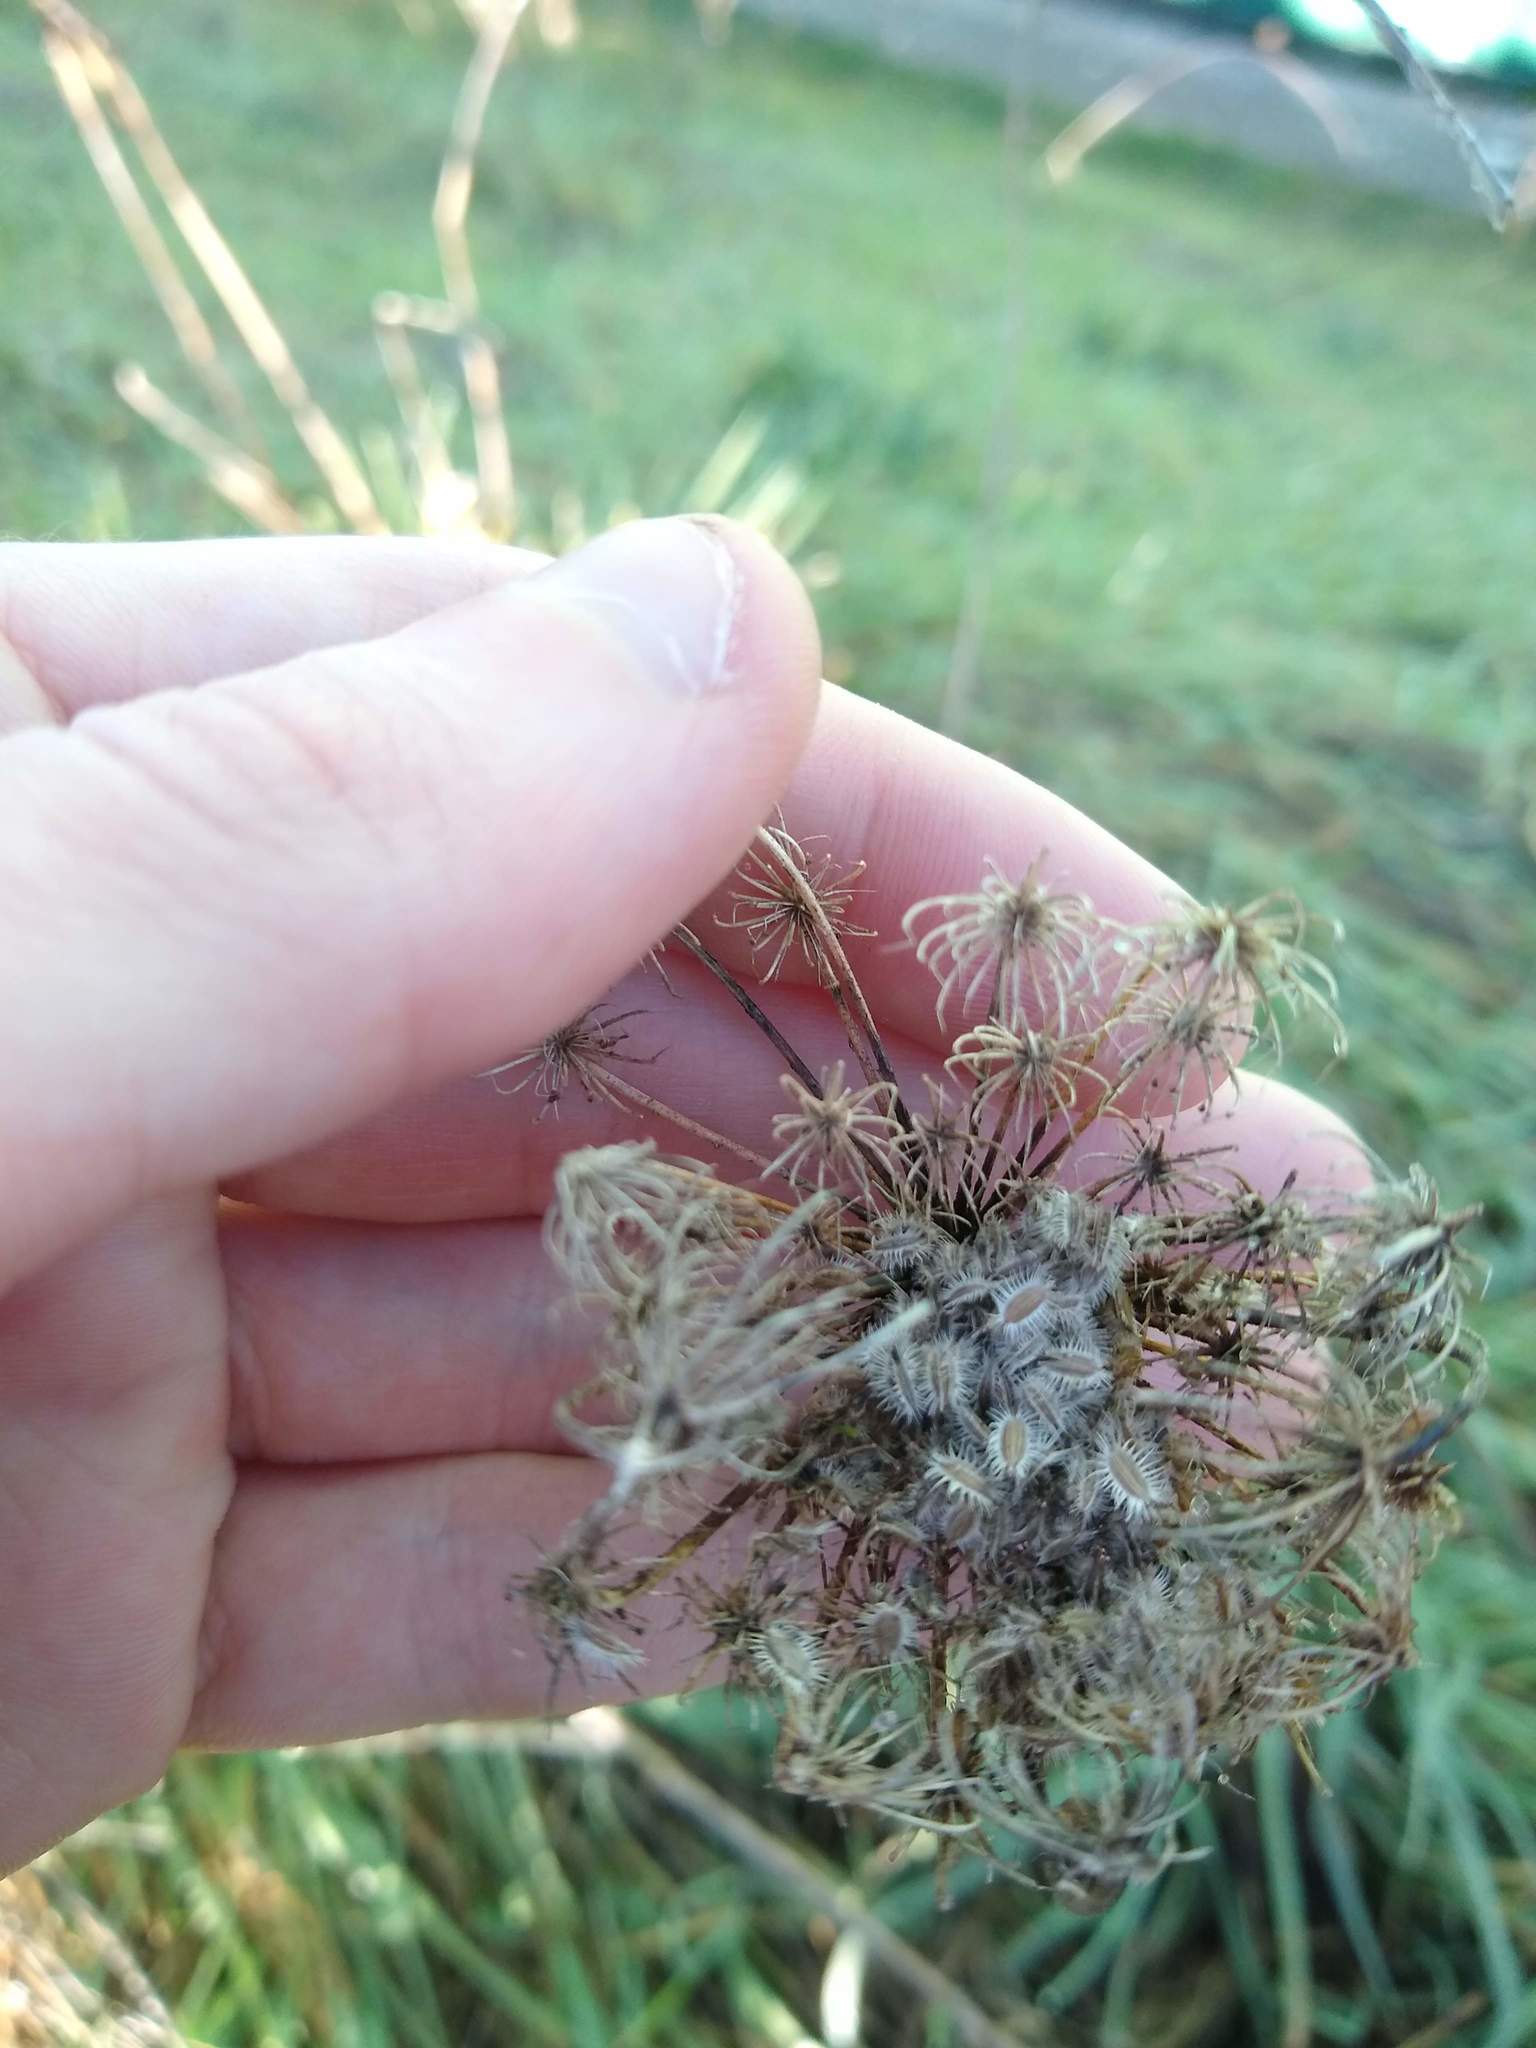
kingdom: Plantae
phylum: Tracheophyta
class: Magnoliopsida
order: Apiales
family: Apiaceae
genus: Daucus
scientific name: Daucus carota
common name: Wild carrot
